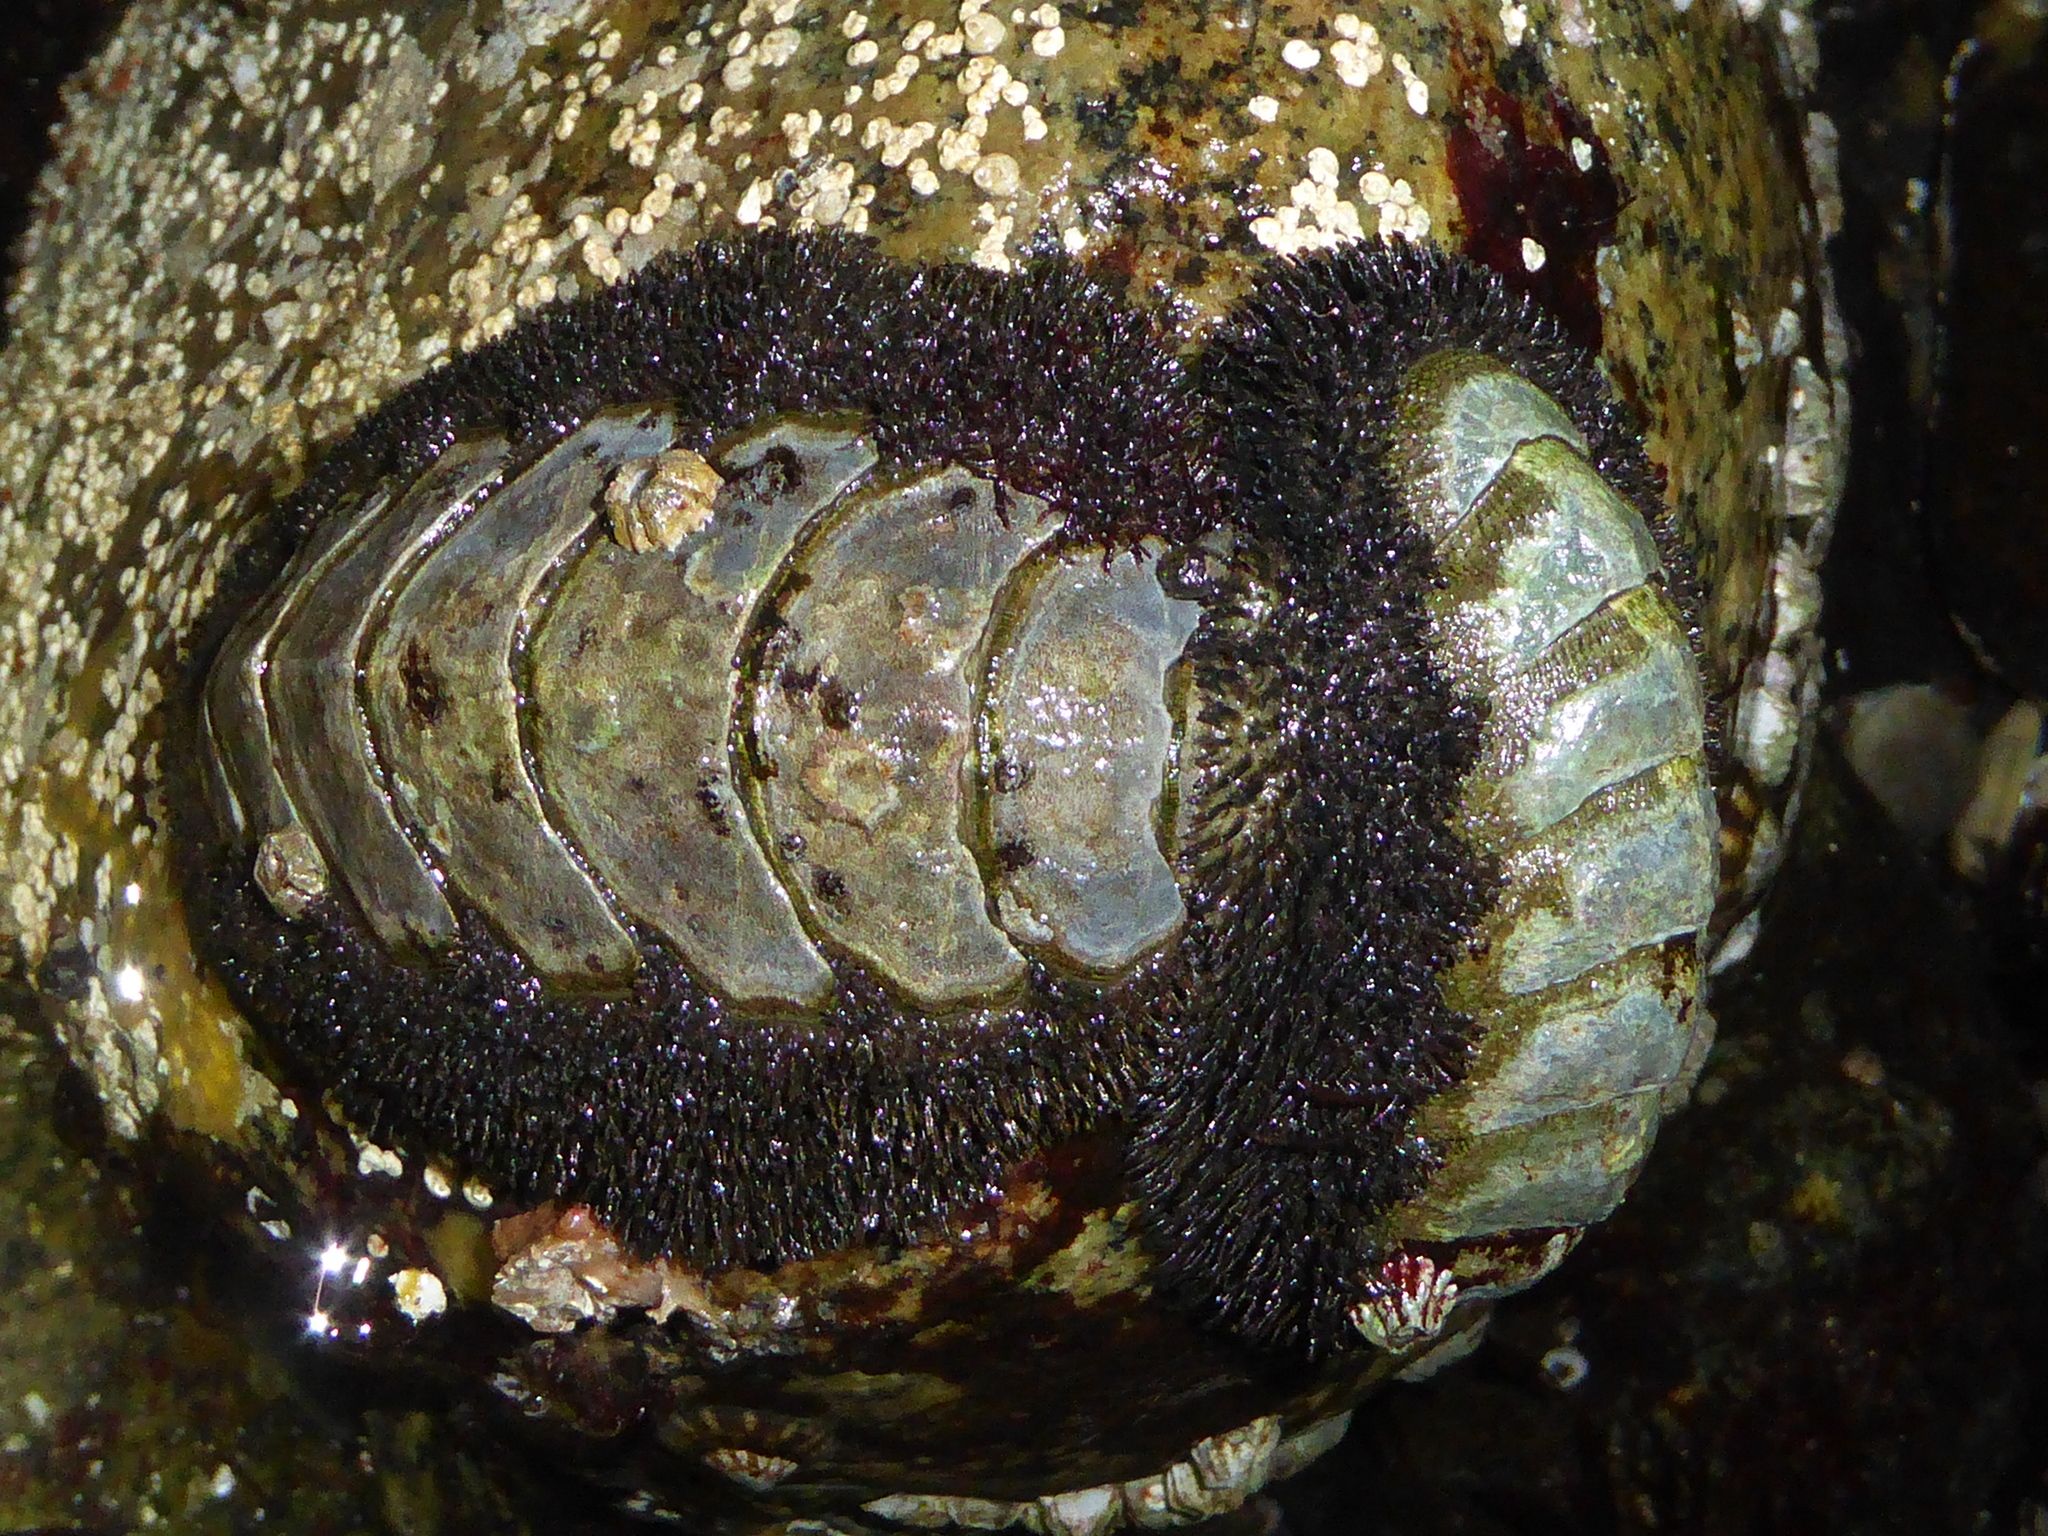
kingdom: Animalia
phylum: Mollusca
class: Polyplacophora
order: Chitonida
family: Mopaliidae
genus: Mopalia
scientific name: Mopalia muscosa
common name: Mossy chiton
